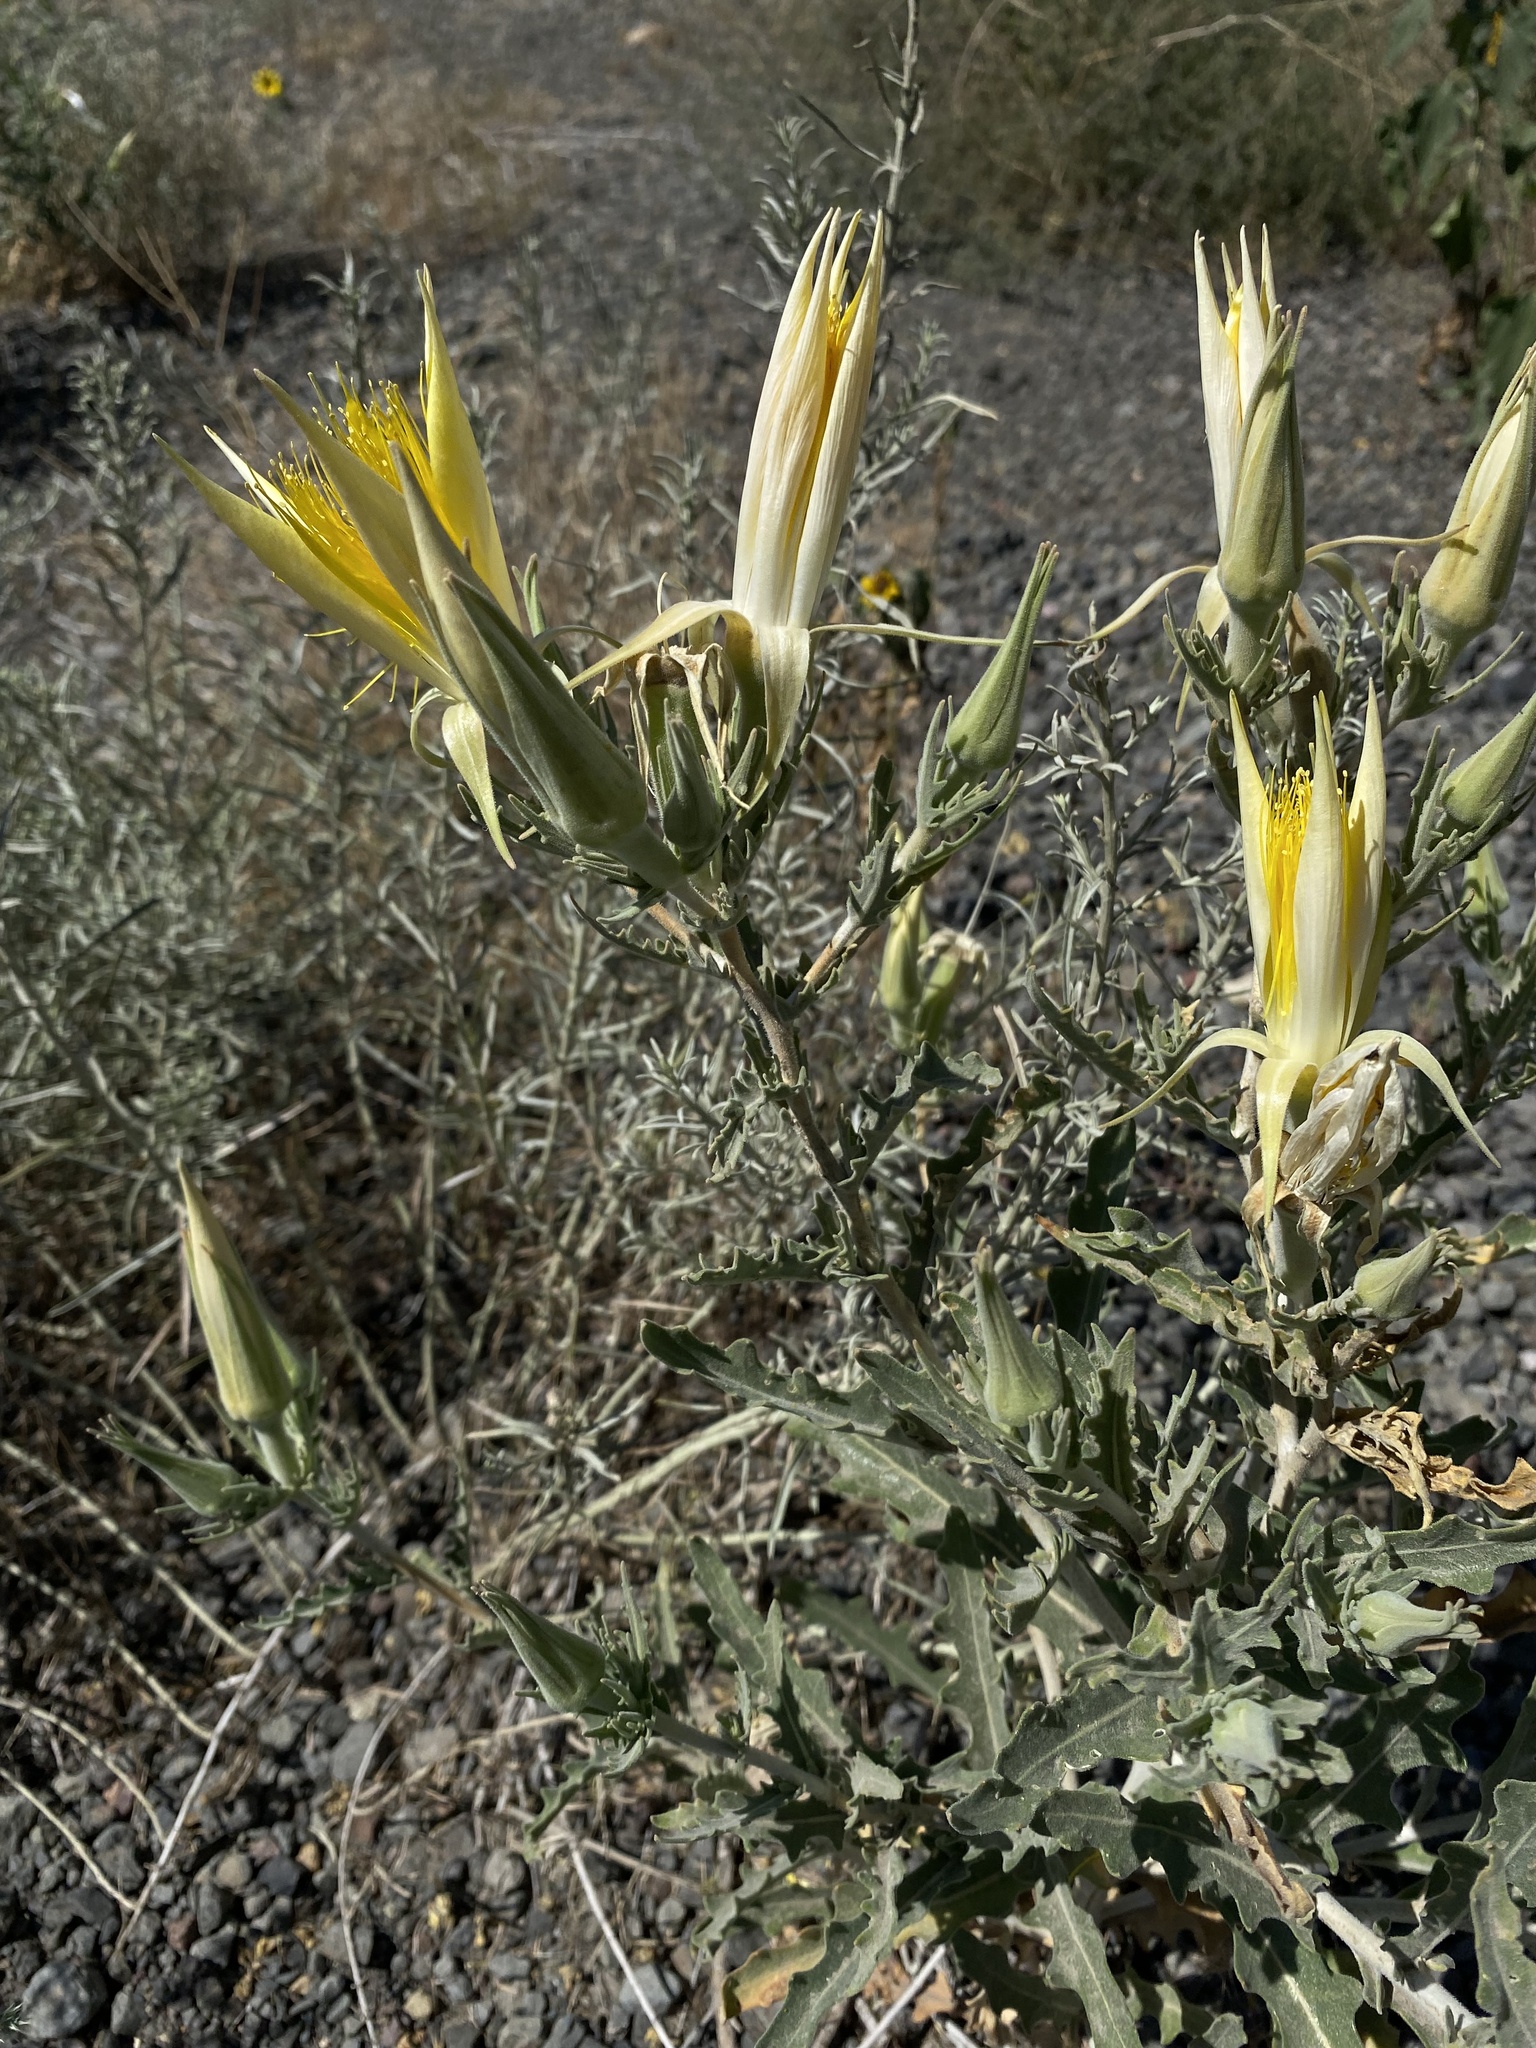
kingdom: Plantae
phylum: Tracheophyta
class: Magnoliopsida
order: Cornales
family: Loasaceae
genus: Mentzelia
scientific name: Mentzelia laevicaulis
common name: Smooth-stem blazingstar
